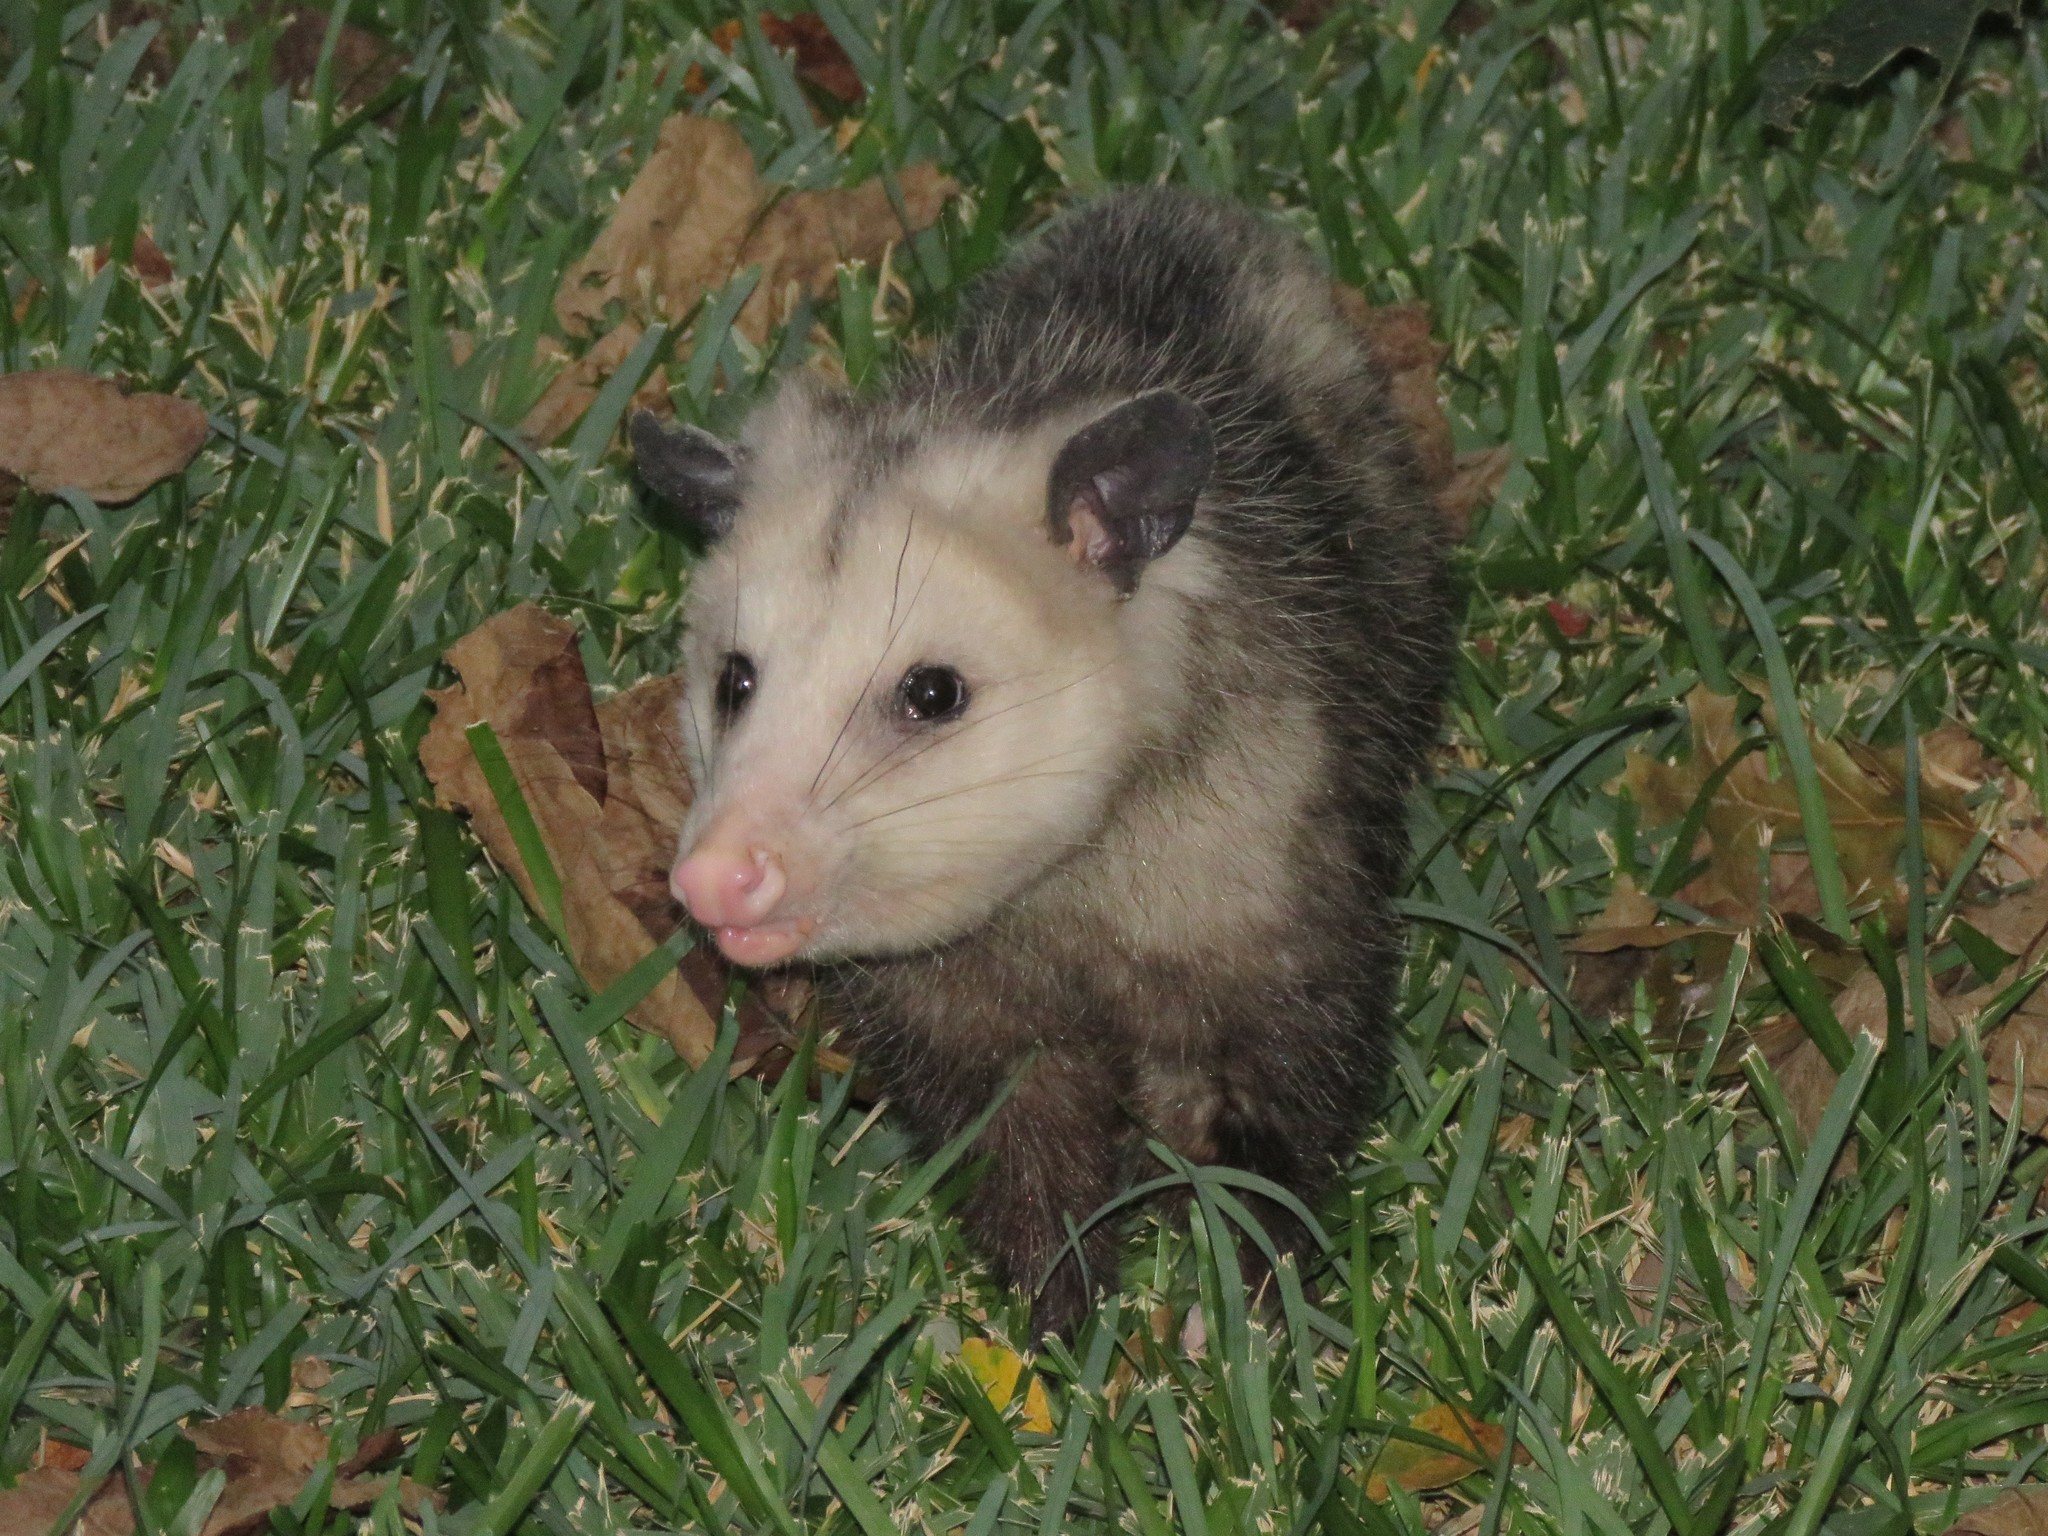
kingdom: Animalia
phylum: Chordata
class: Mammalia
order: Didelphimorphia
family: Didelphidae
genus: Didelphis
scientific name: Didelphis virginiana
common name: Virginia opossum
